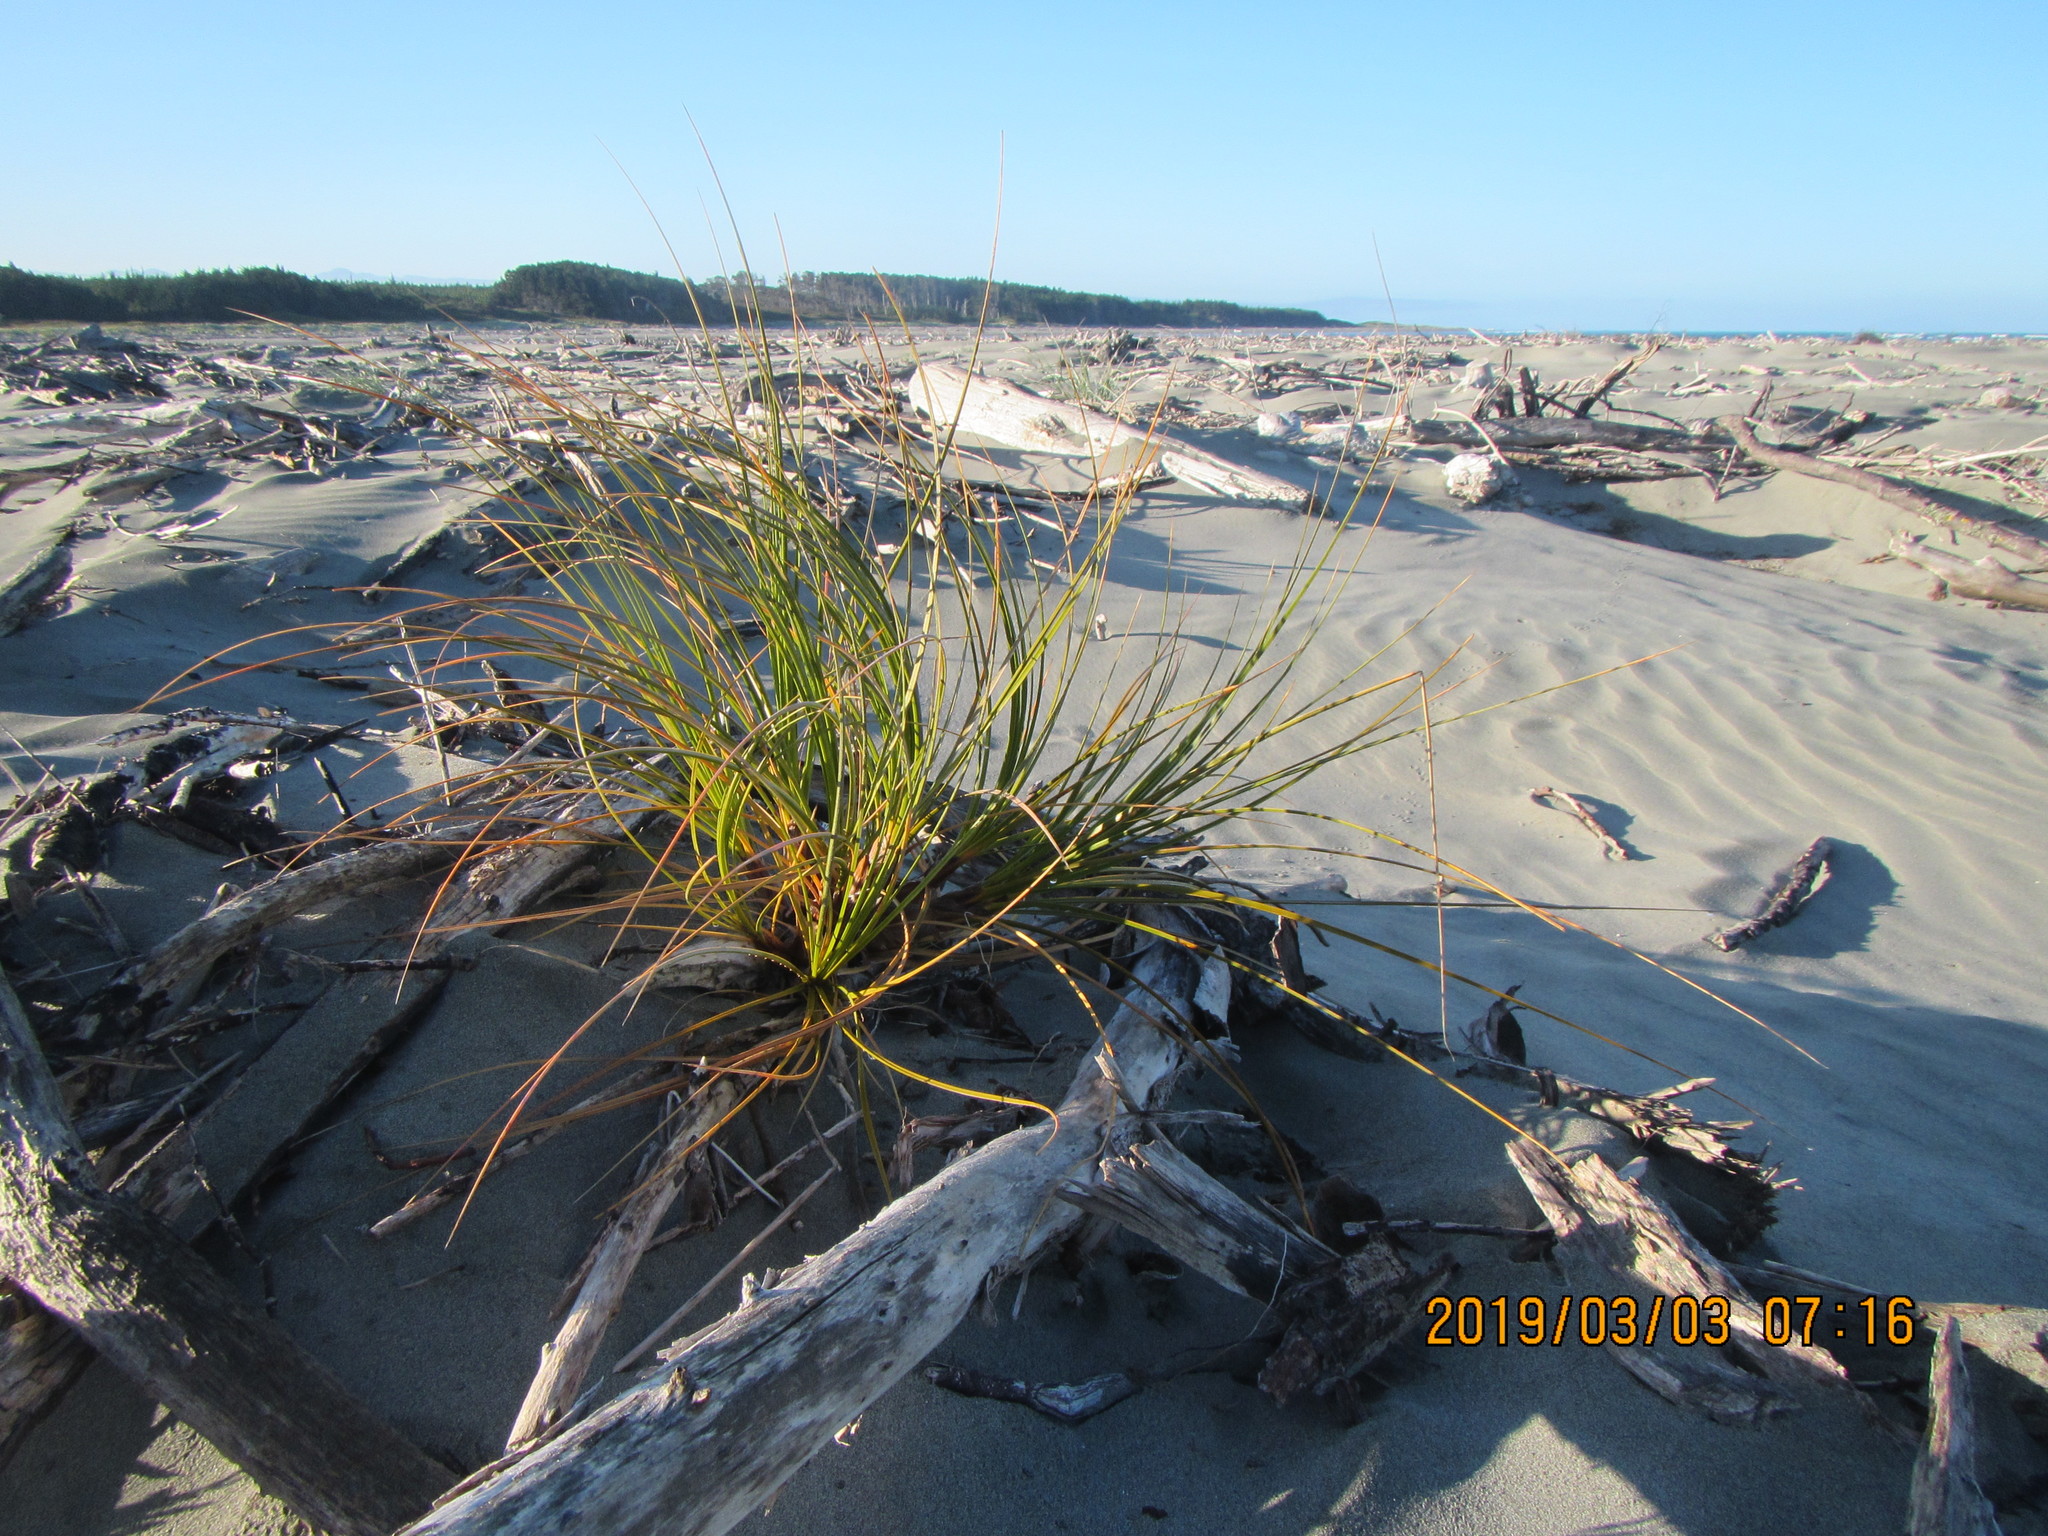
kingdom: Plantae
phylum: Tracheophyta
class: Liliopsida
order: Poales
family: Cyperaceae
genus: Ficinia
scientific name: Ficinia spiralis
